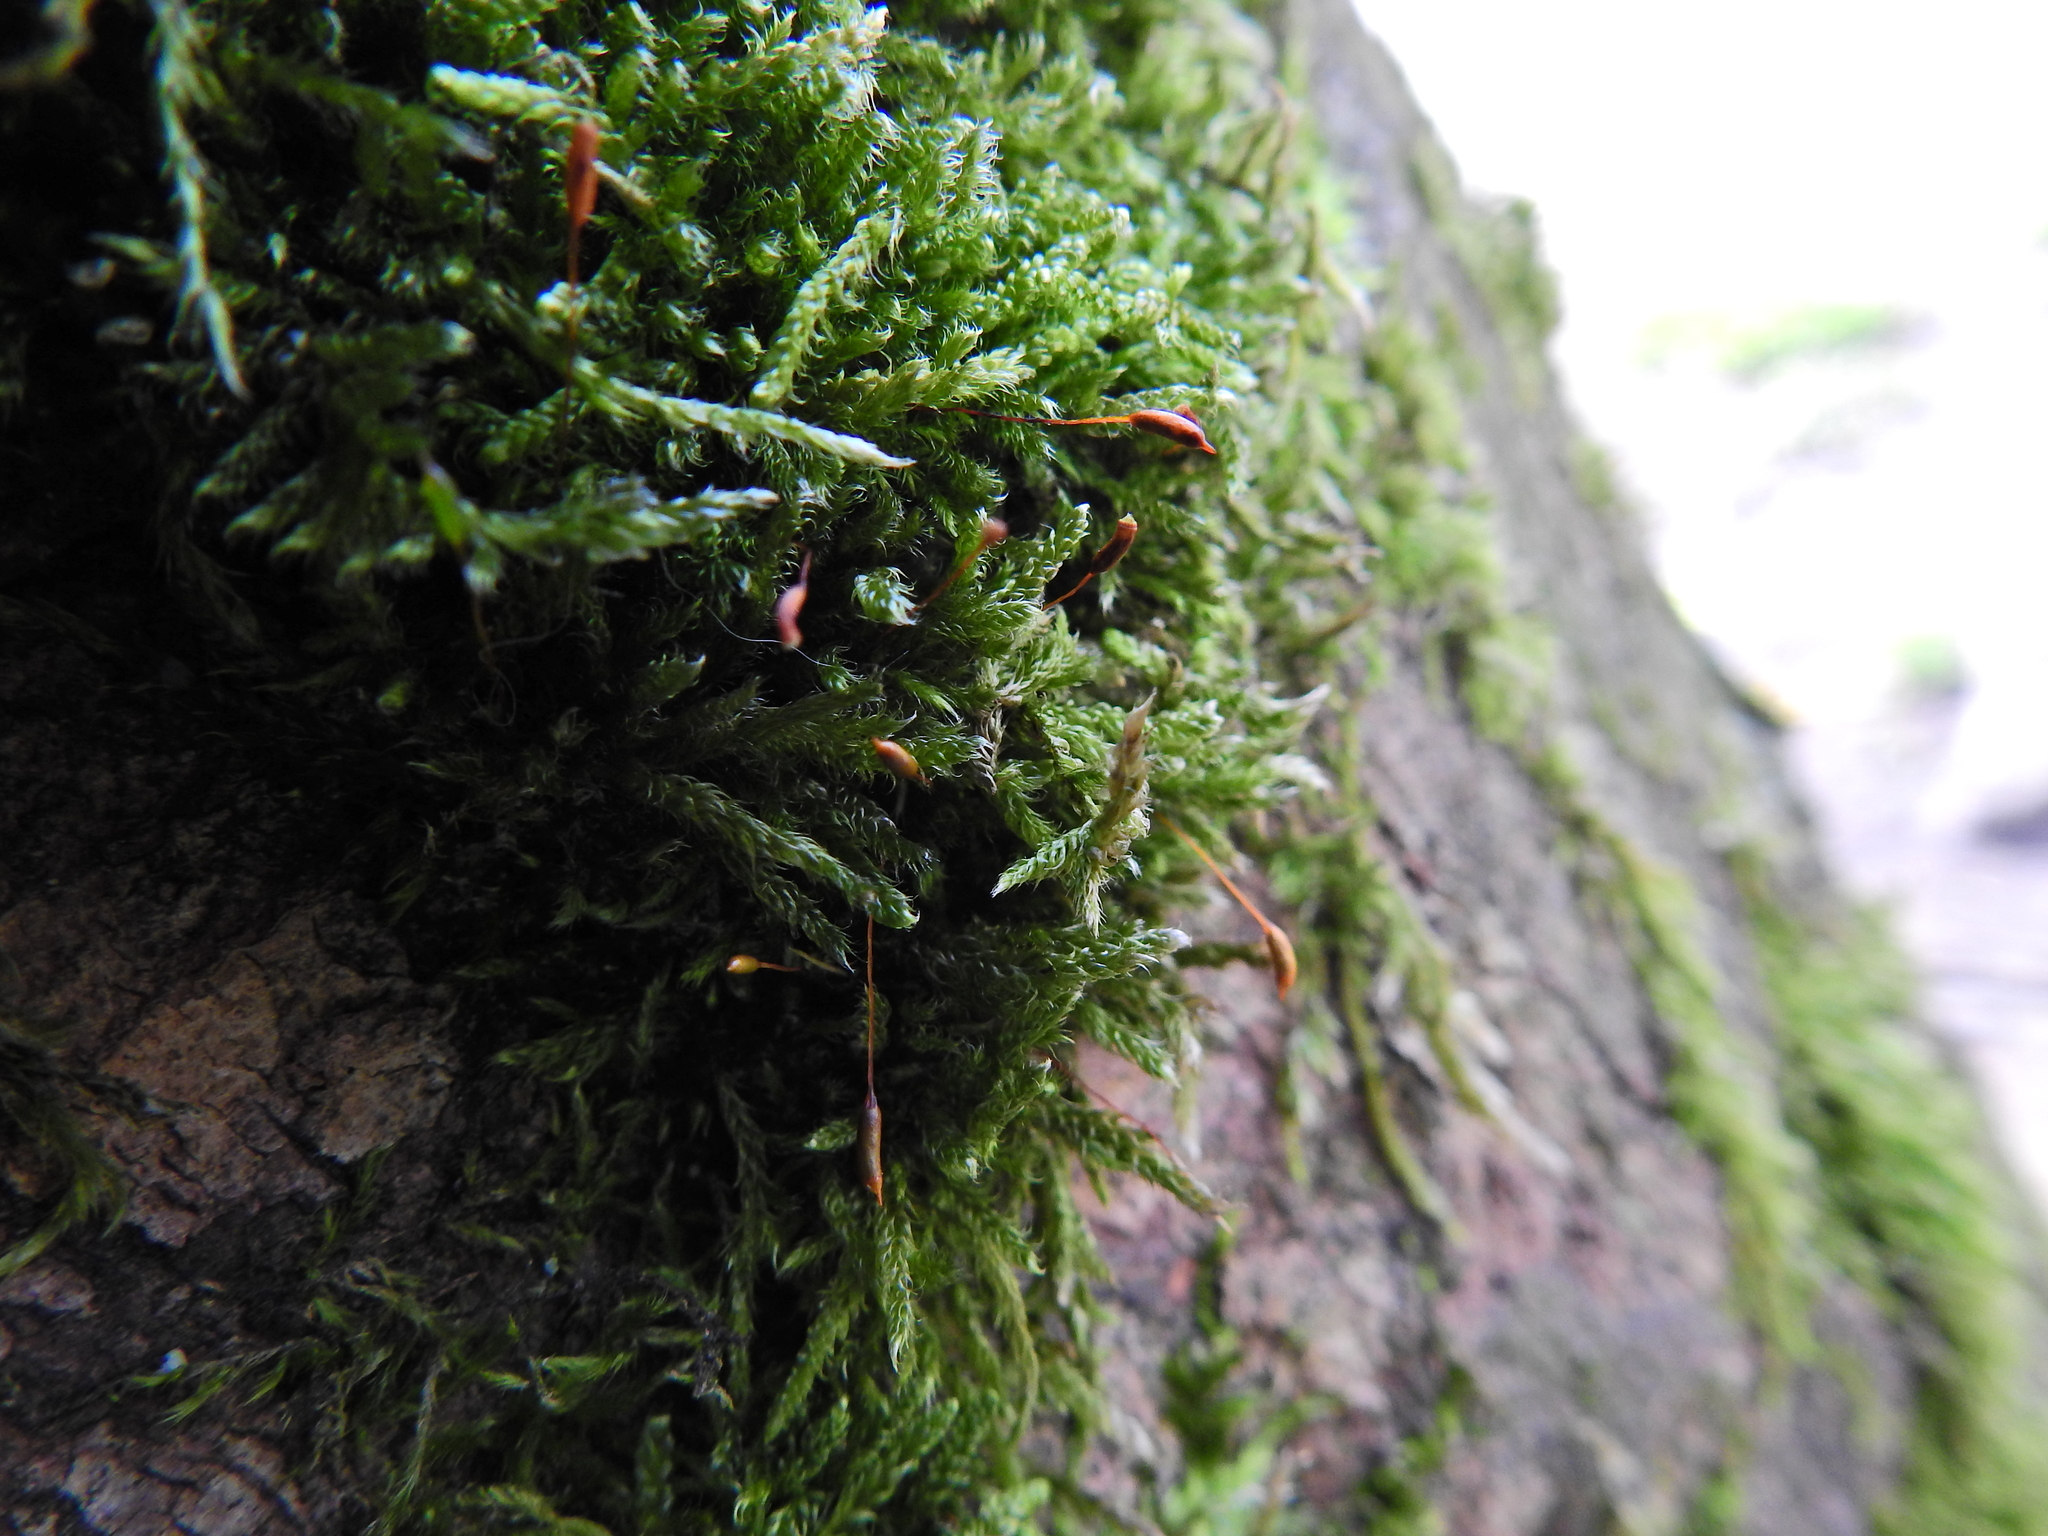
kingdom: Plantae
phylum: Bryophyta
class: Bryopsida
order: Hypnales
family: Hypnaceae
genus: Hypnum
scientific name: Hypnum cupressiforme
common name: Cypress-leaved plait-moss
